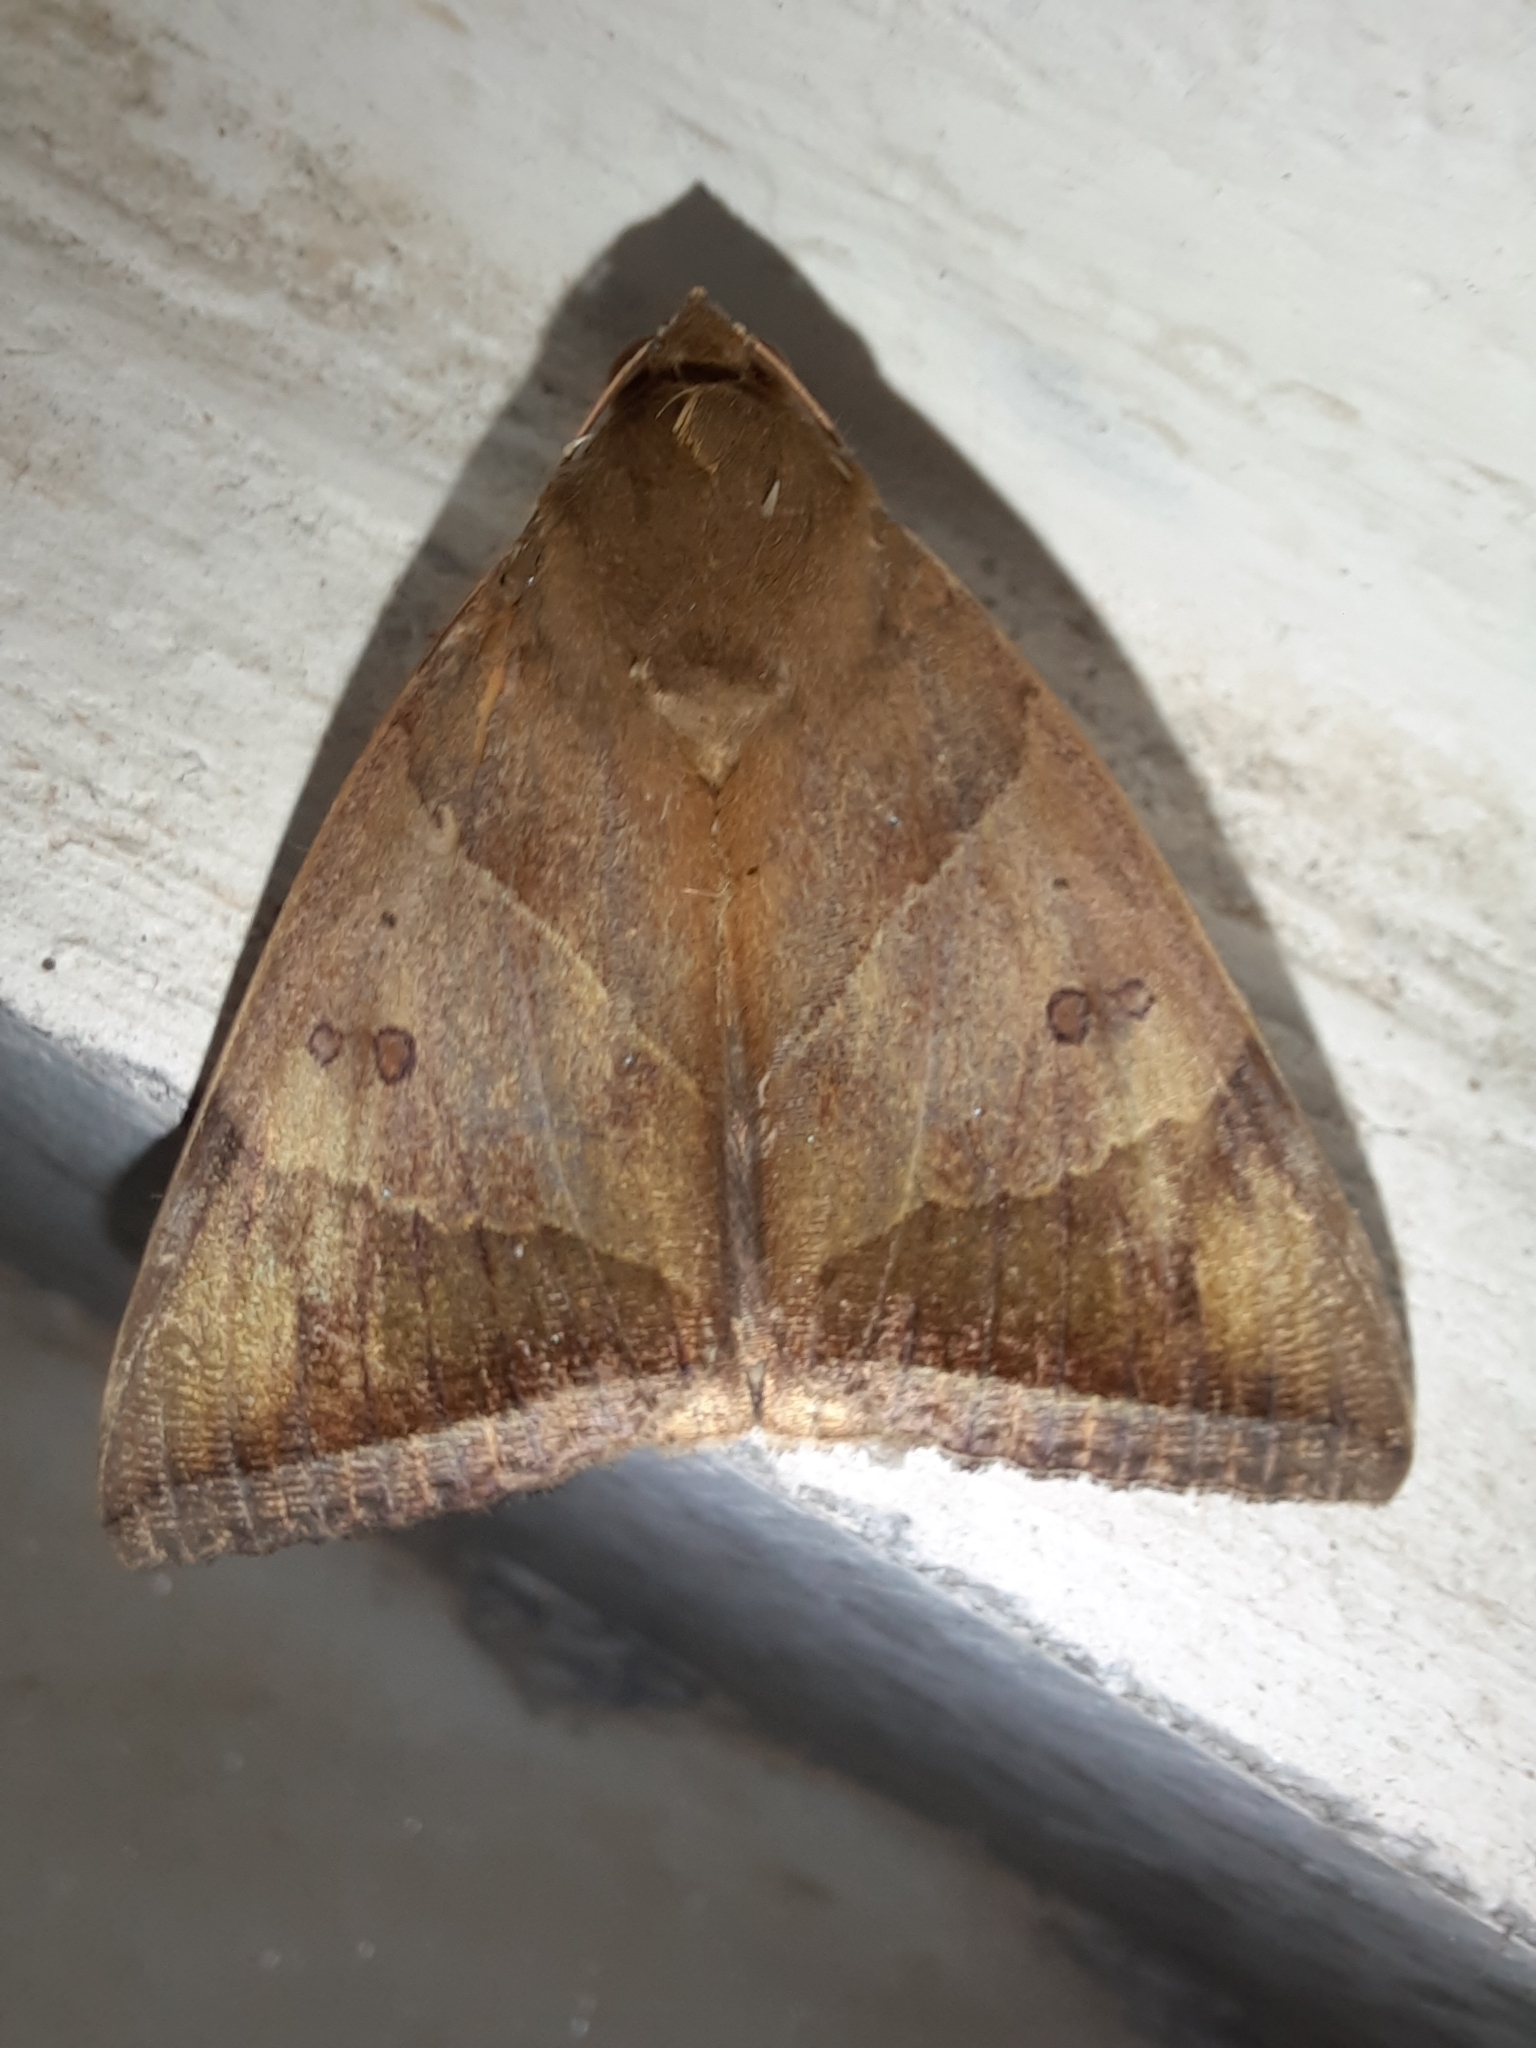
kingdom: Animalia
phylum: Arthropoda
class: Insecta
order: Lepidoptera
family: Erebidae
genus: Artena
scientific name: Artena dotata
